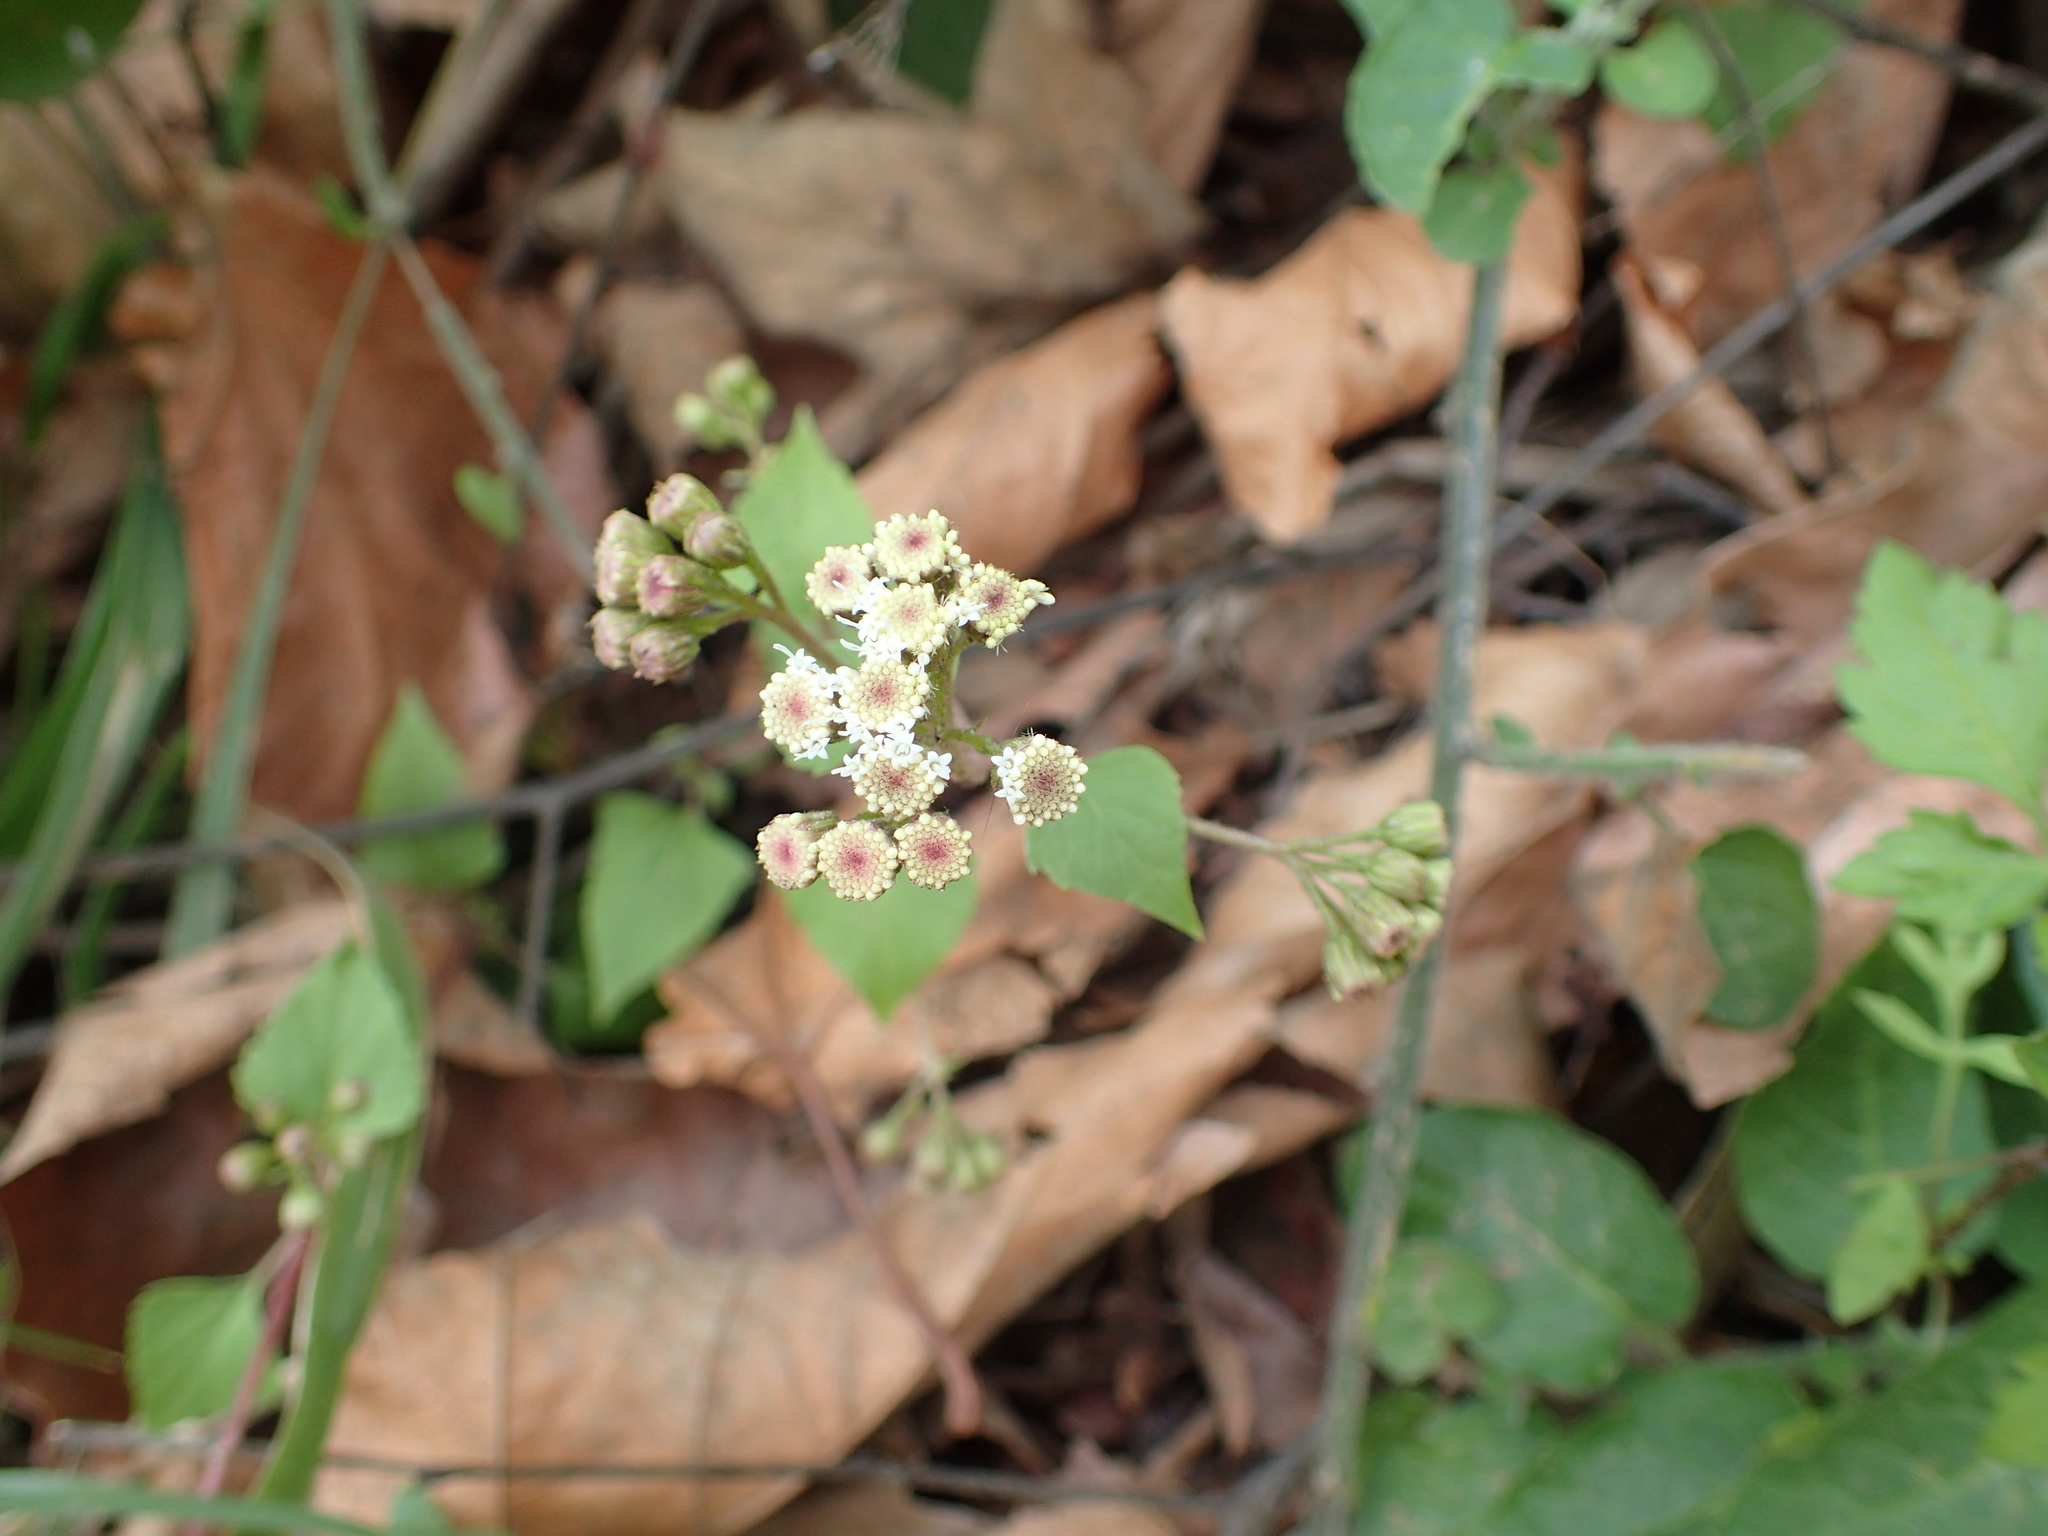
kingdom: Plantae
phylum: Tracheophyta
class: Magnoliopsida
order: Asterales
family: Asteraceae
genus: Ageratina
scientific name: Ageratina adenophora
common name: Sticky snakeroot
